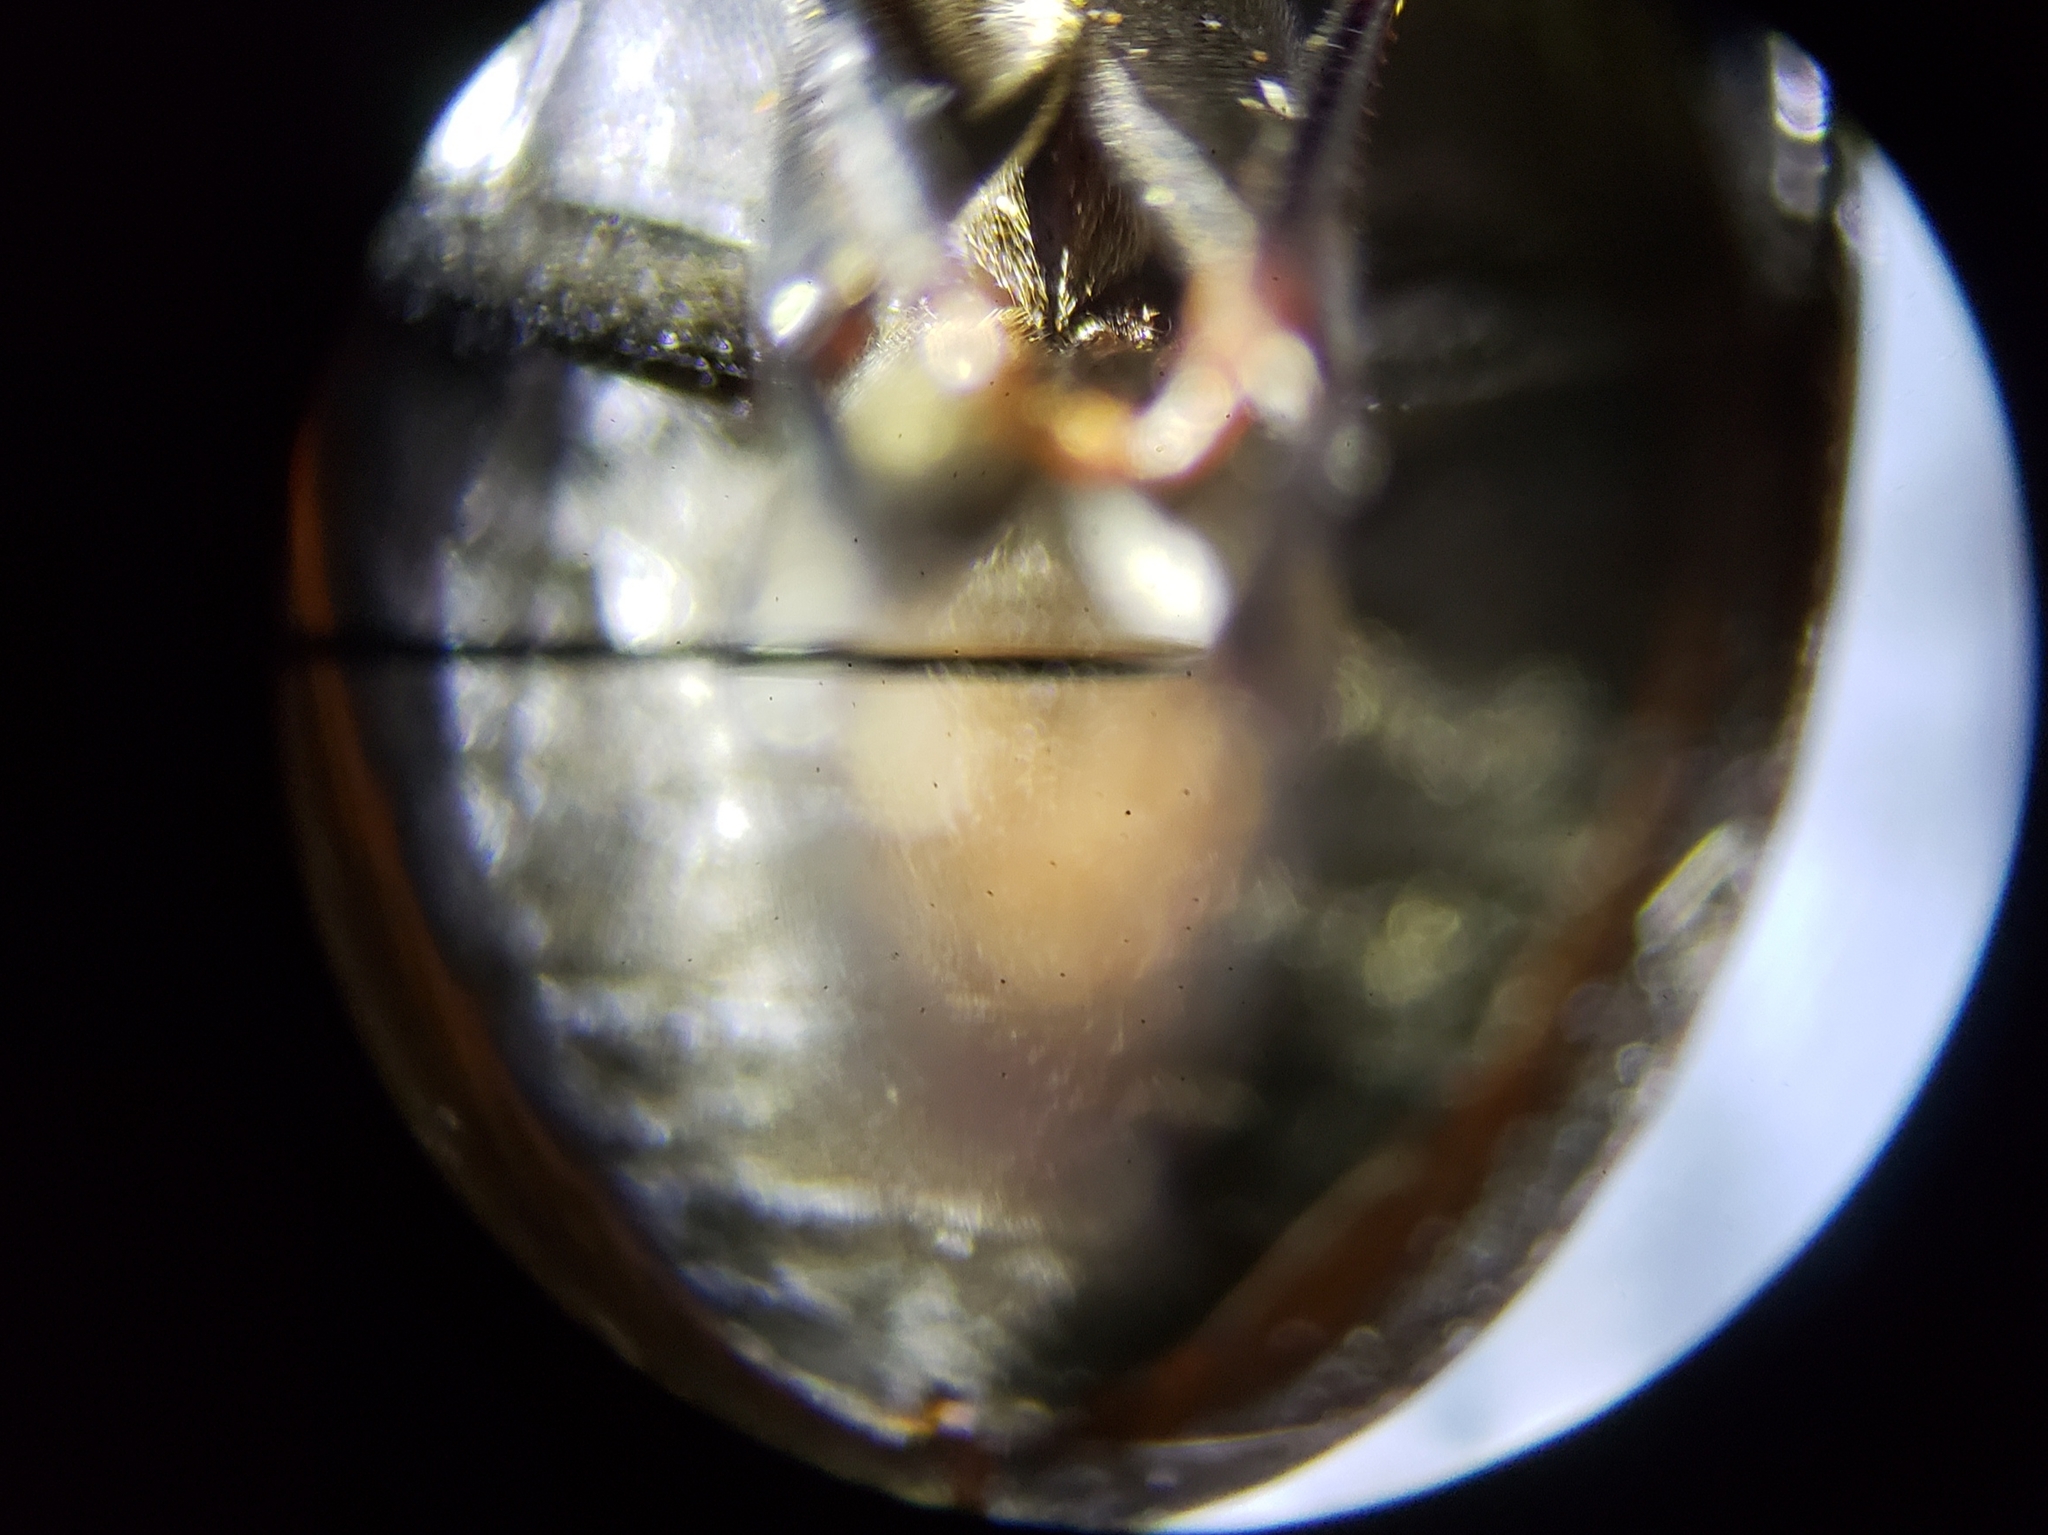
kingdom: Animalia
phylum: Arthropoda
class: Insecta
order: Coleoptera
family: Hydrophilidae
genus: Enochrus
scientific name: Enochrus
